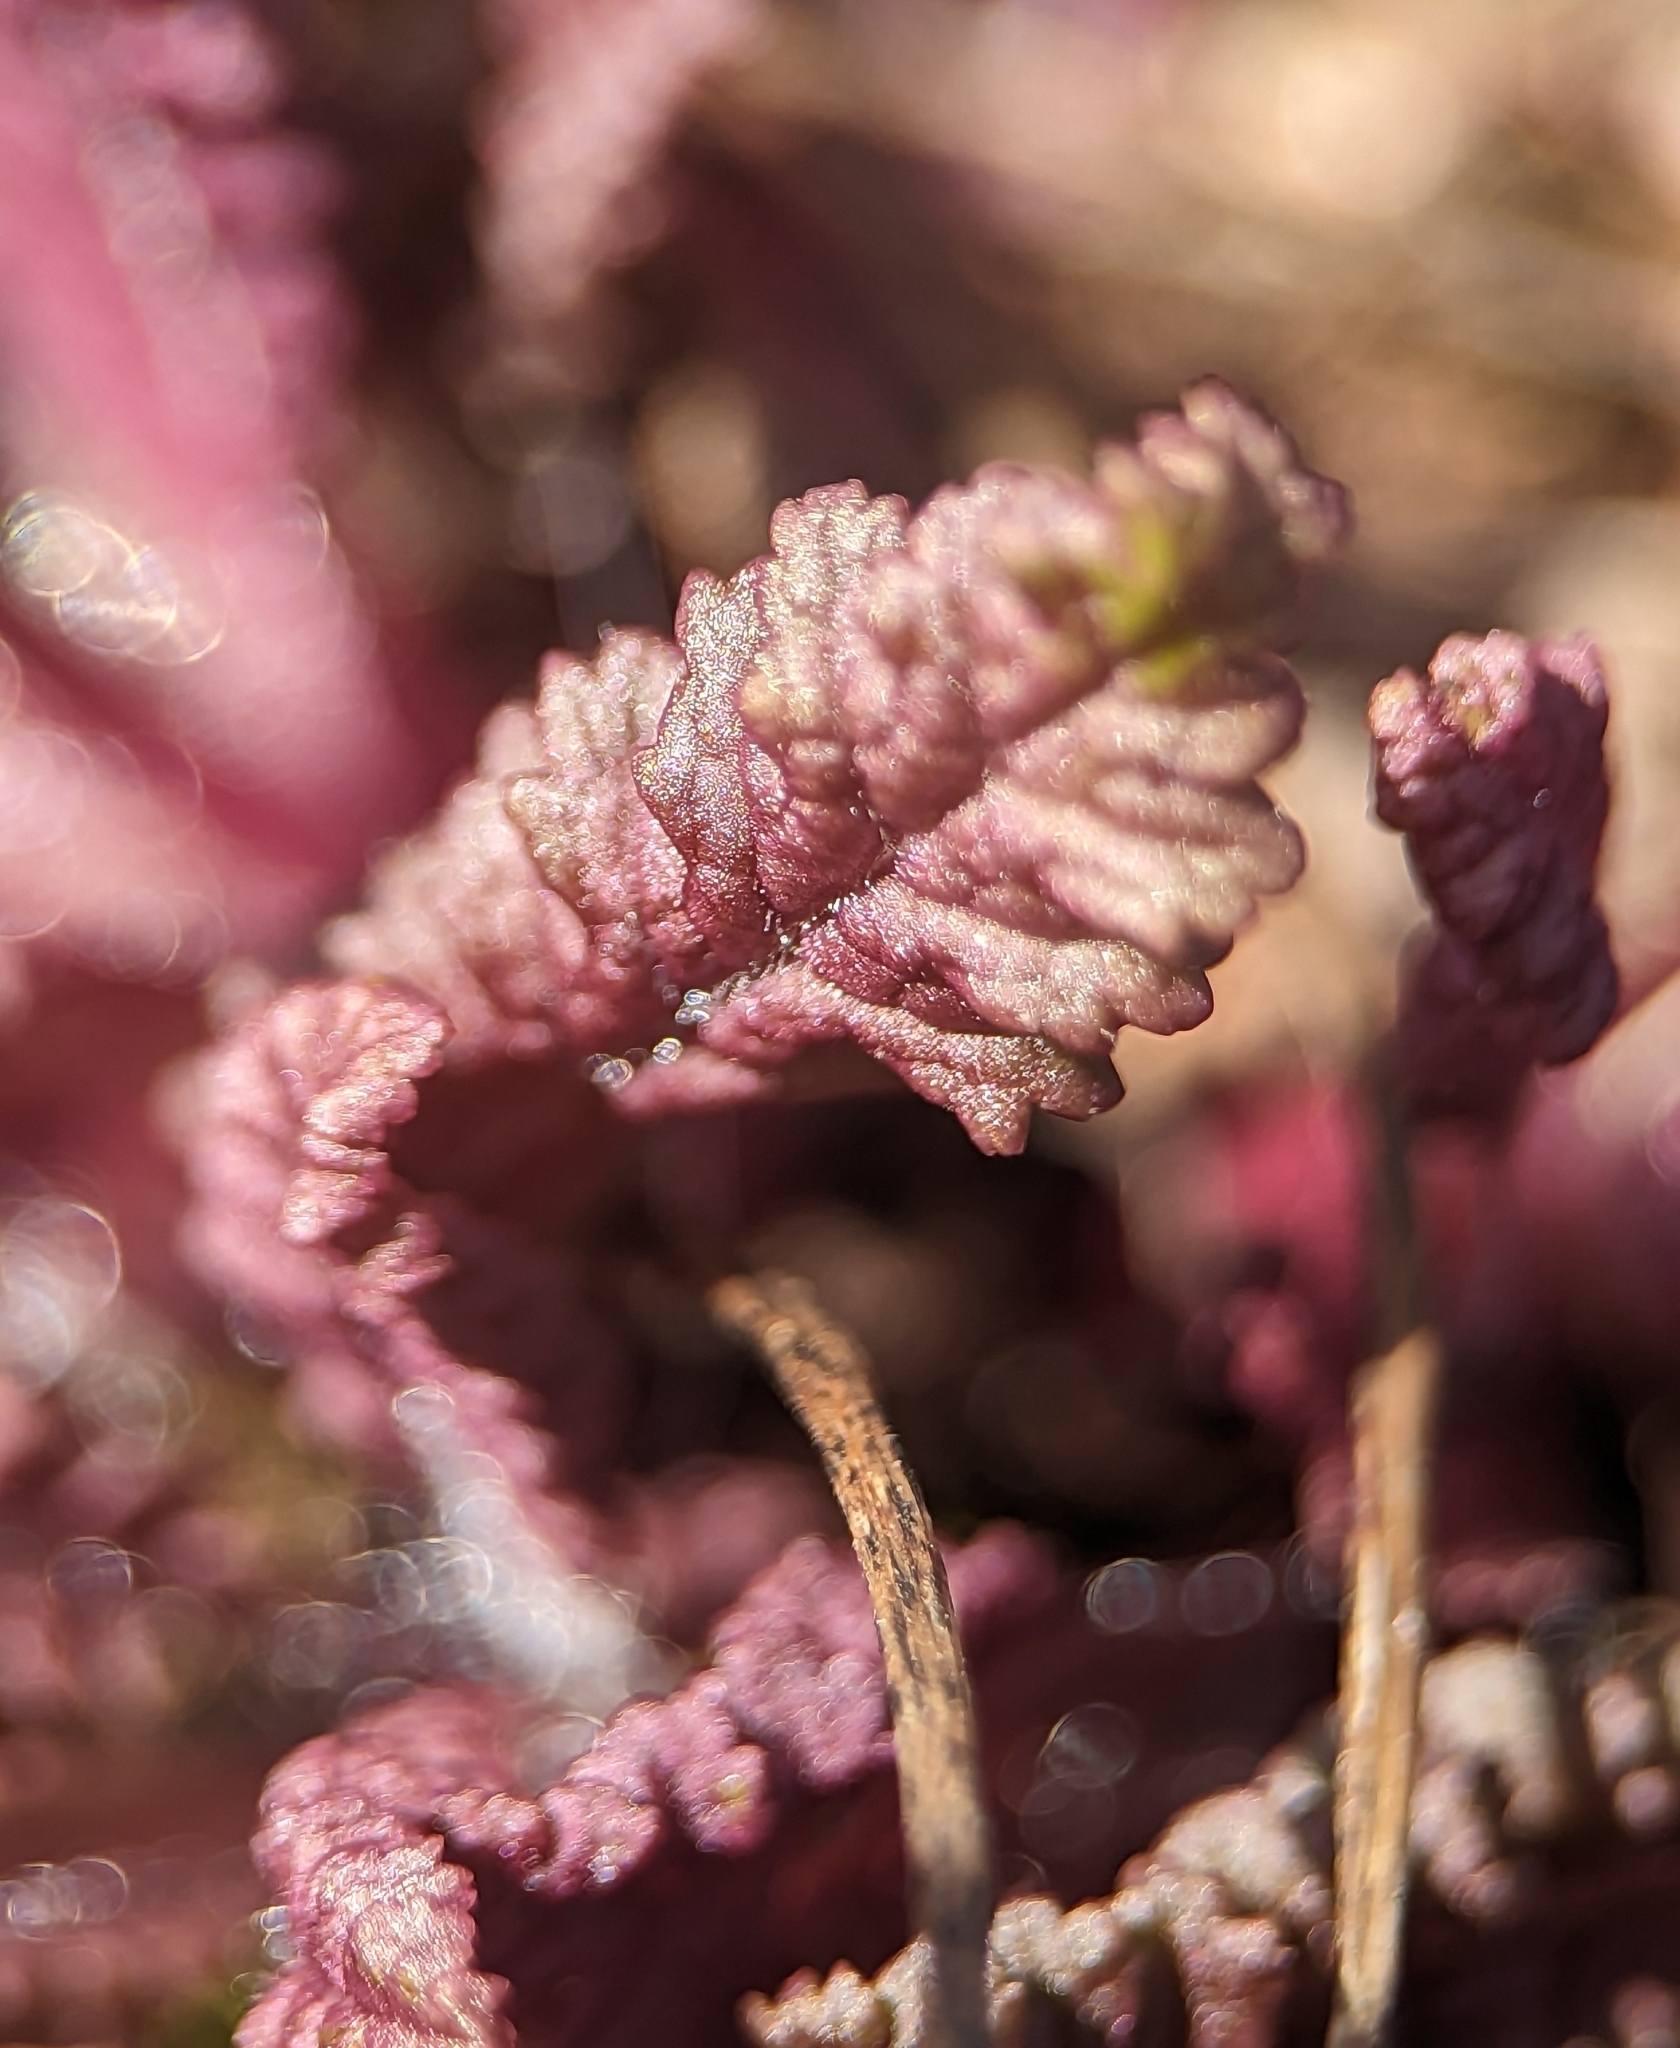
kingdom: Plantae
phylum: Tracheophyta
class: Magnoliopsida
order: Lamiales
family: Orobanchaceae
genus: Pedicularis
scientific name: Pedicularis canadensis
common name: Early lousewort
